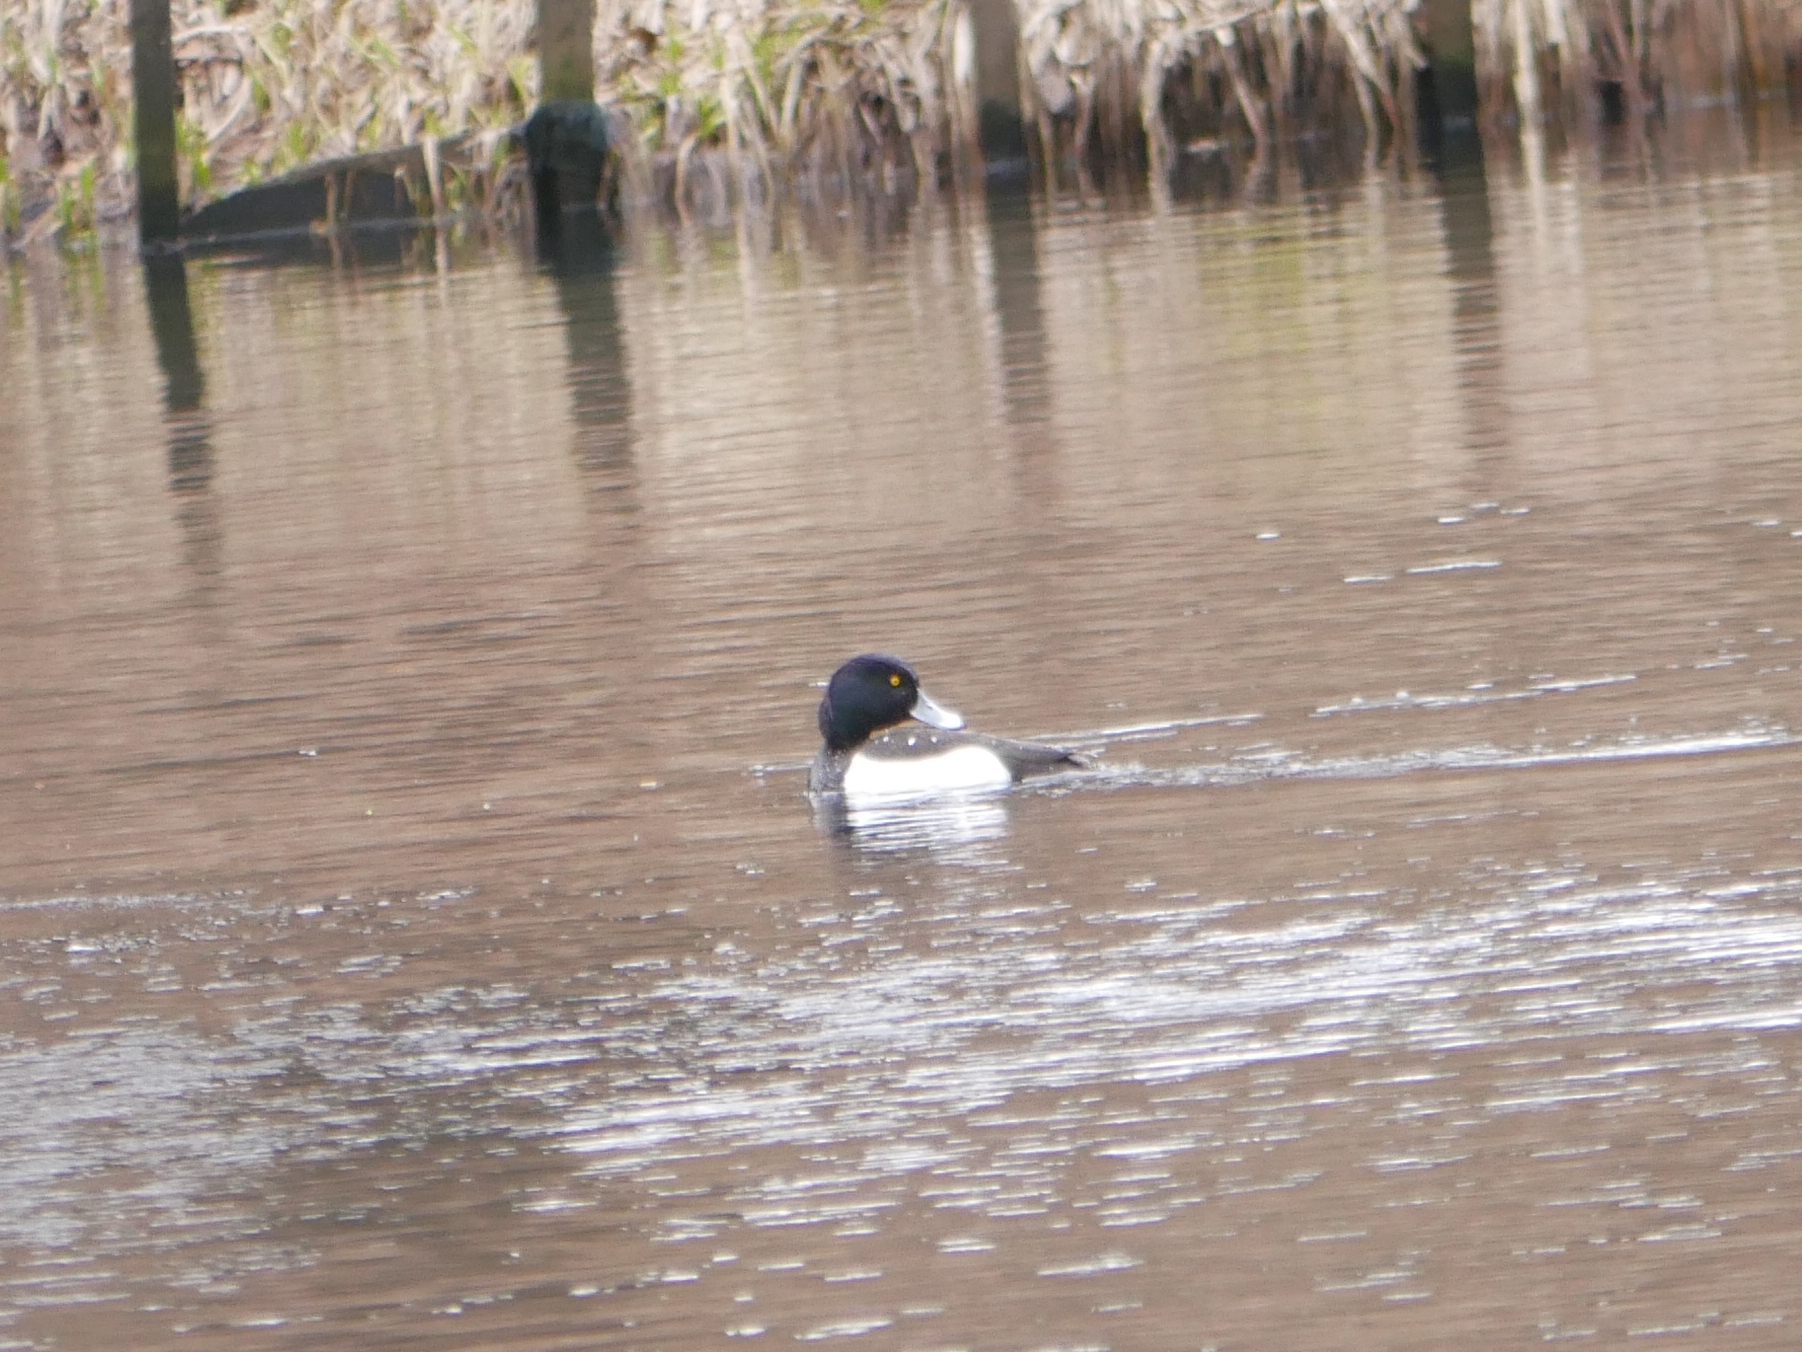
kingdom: Animalia
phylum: Chordata
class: Aves
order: Anseriformes
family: Anatidae
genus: Aythya
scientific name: Aythya fuligula
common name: Tufted duck
